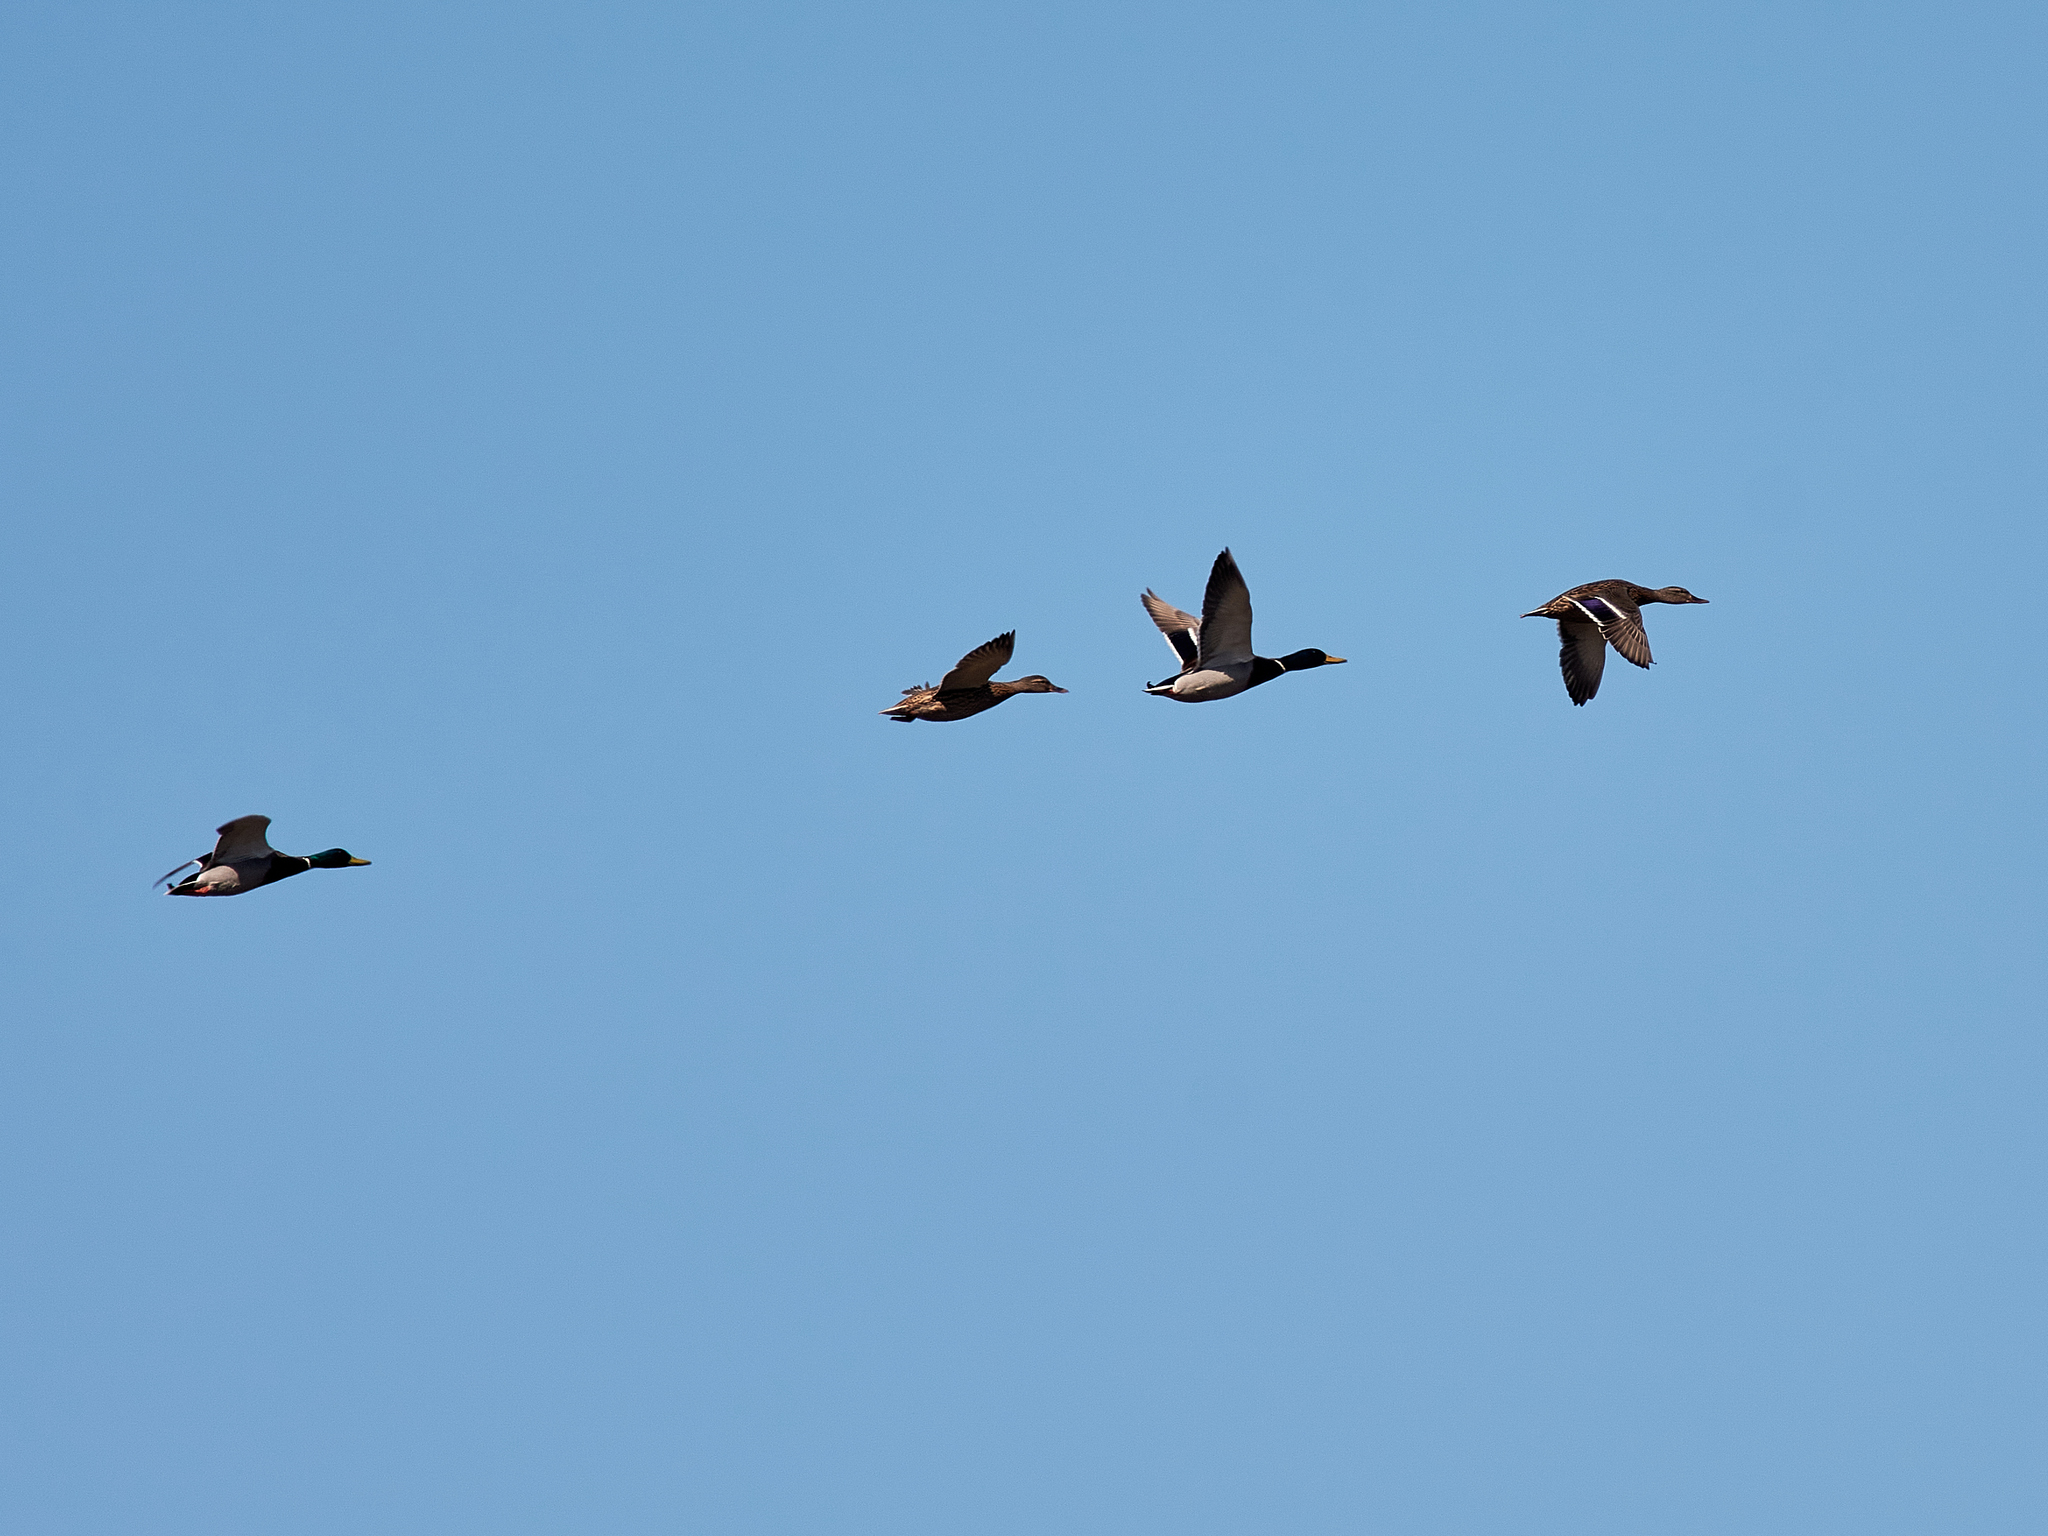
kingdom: Animalia
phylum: Chordata
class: Aves
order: Anseriformes
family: Anatidae
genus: Anas
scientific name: Anas platyrhynchos
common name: Mallard
